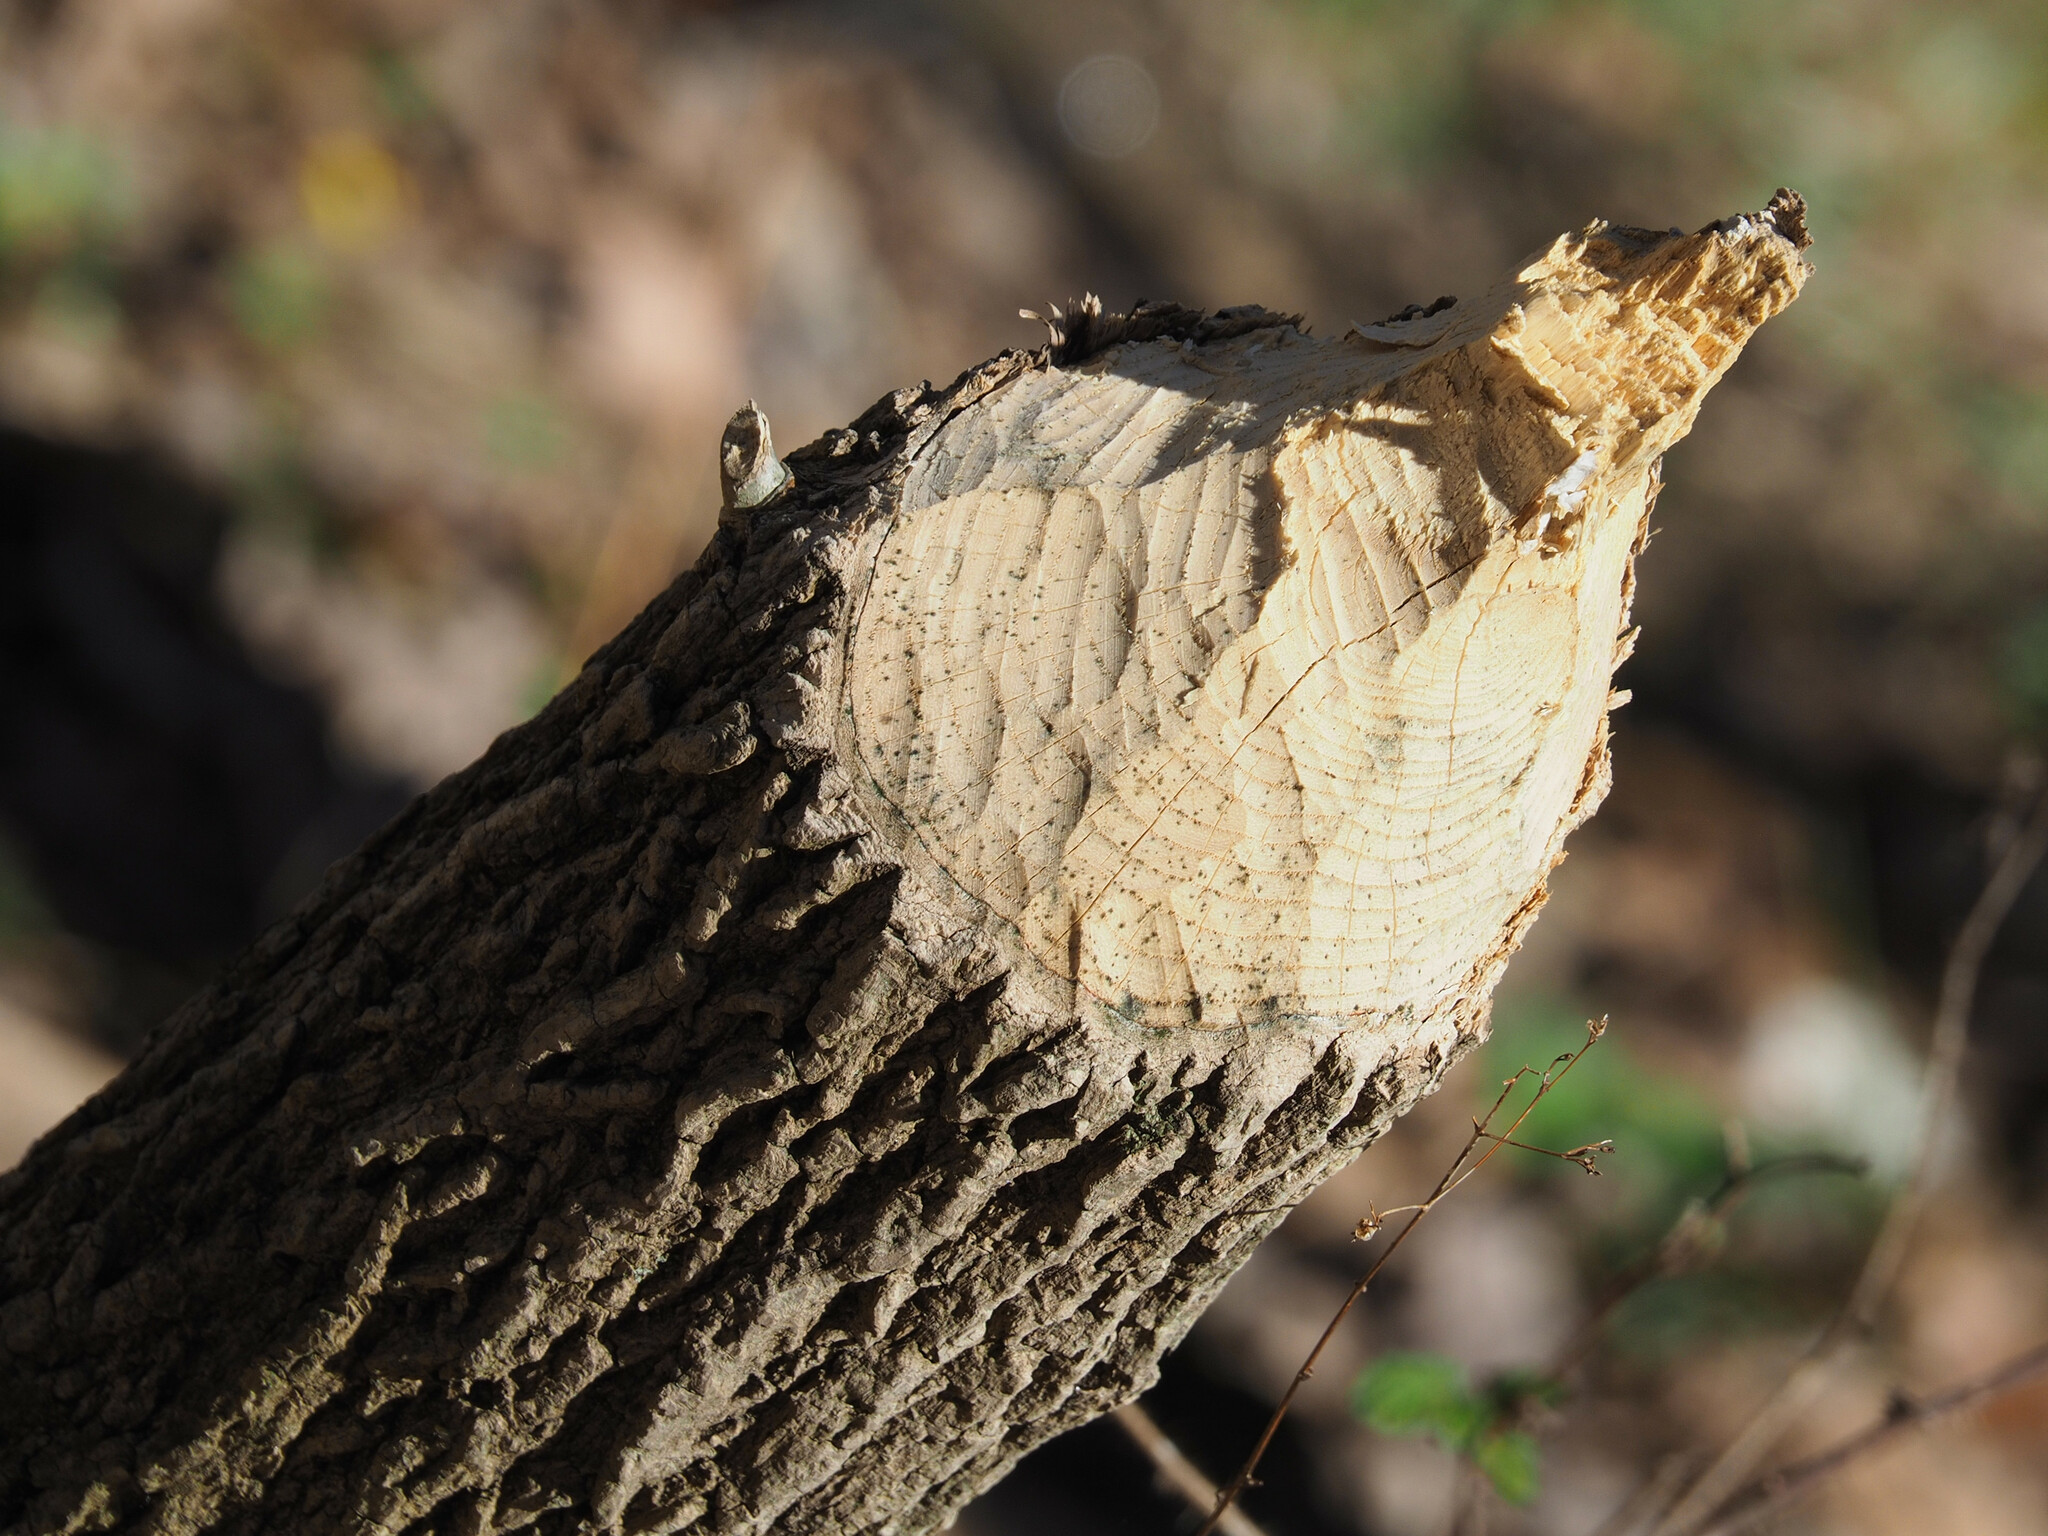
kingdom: Animalia
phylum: Chordata
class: Mammalia
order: Rodentia
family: Castoridae
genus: Castor
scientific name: Castor canadensis
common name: American beaver
